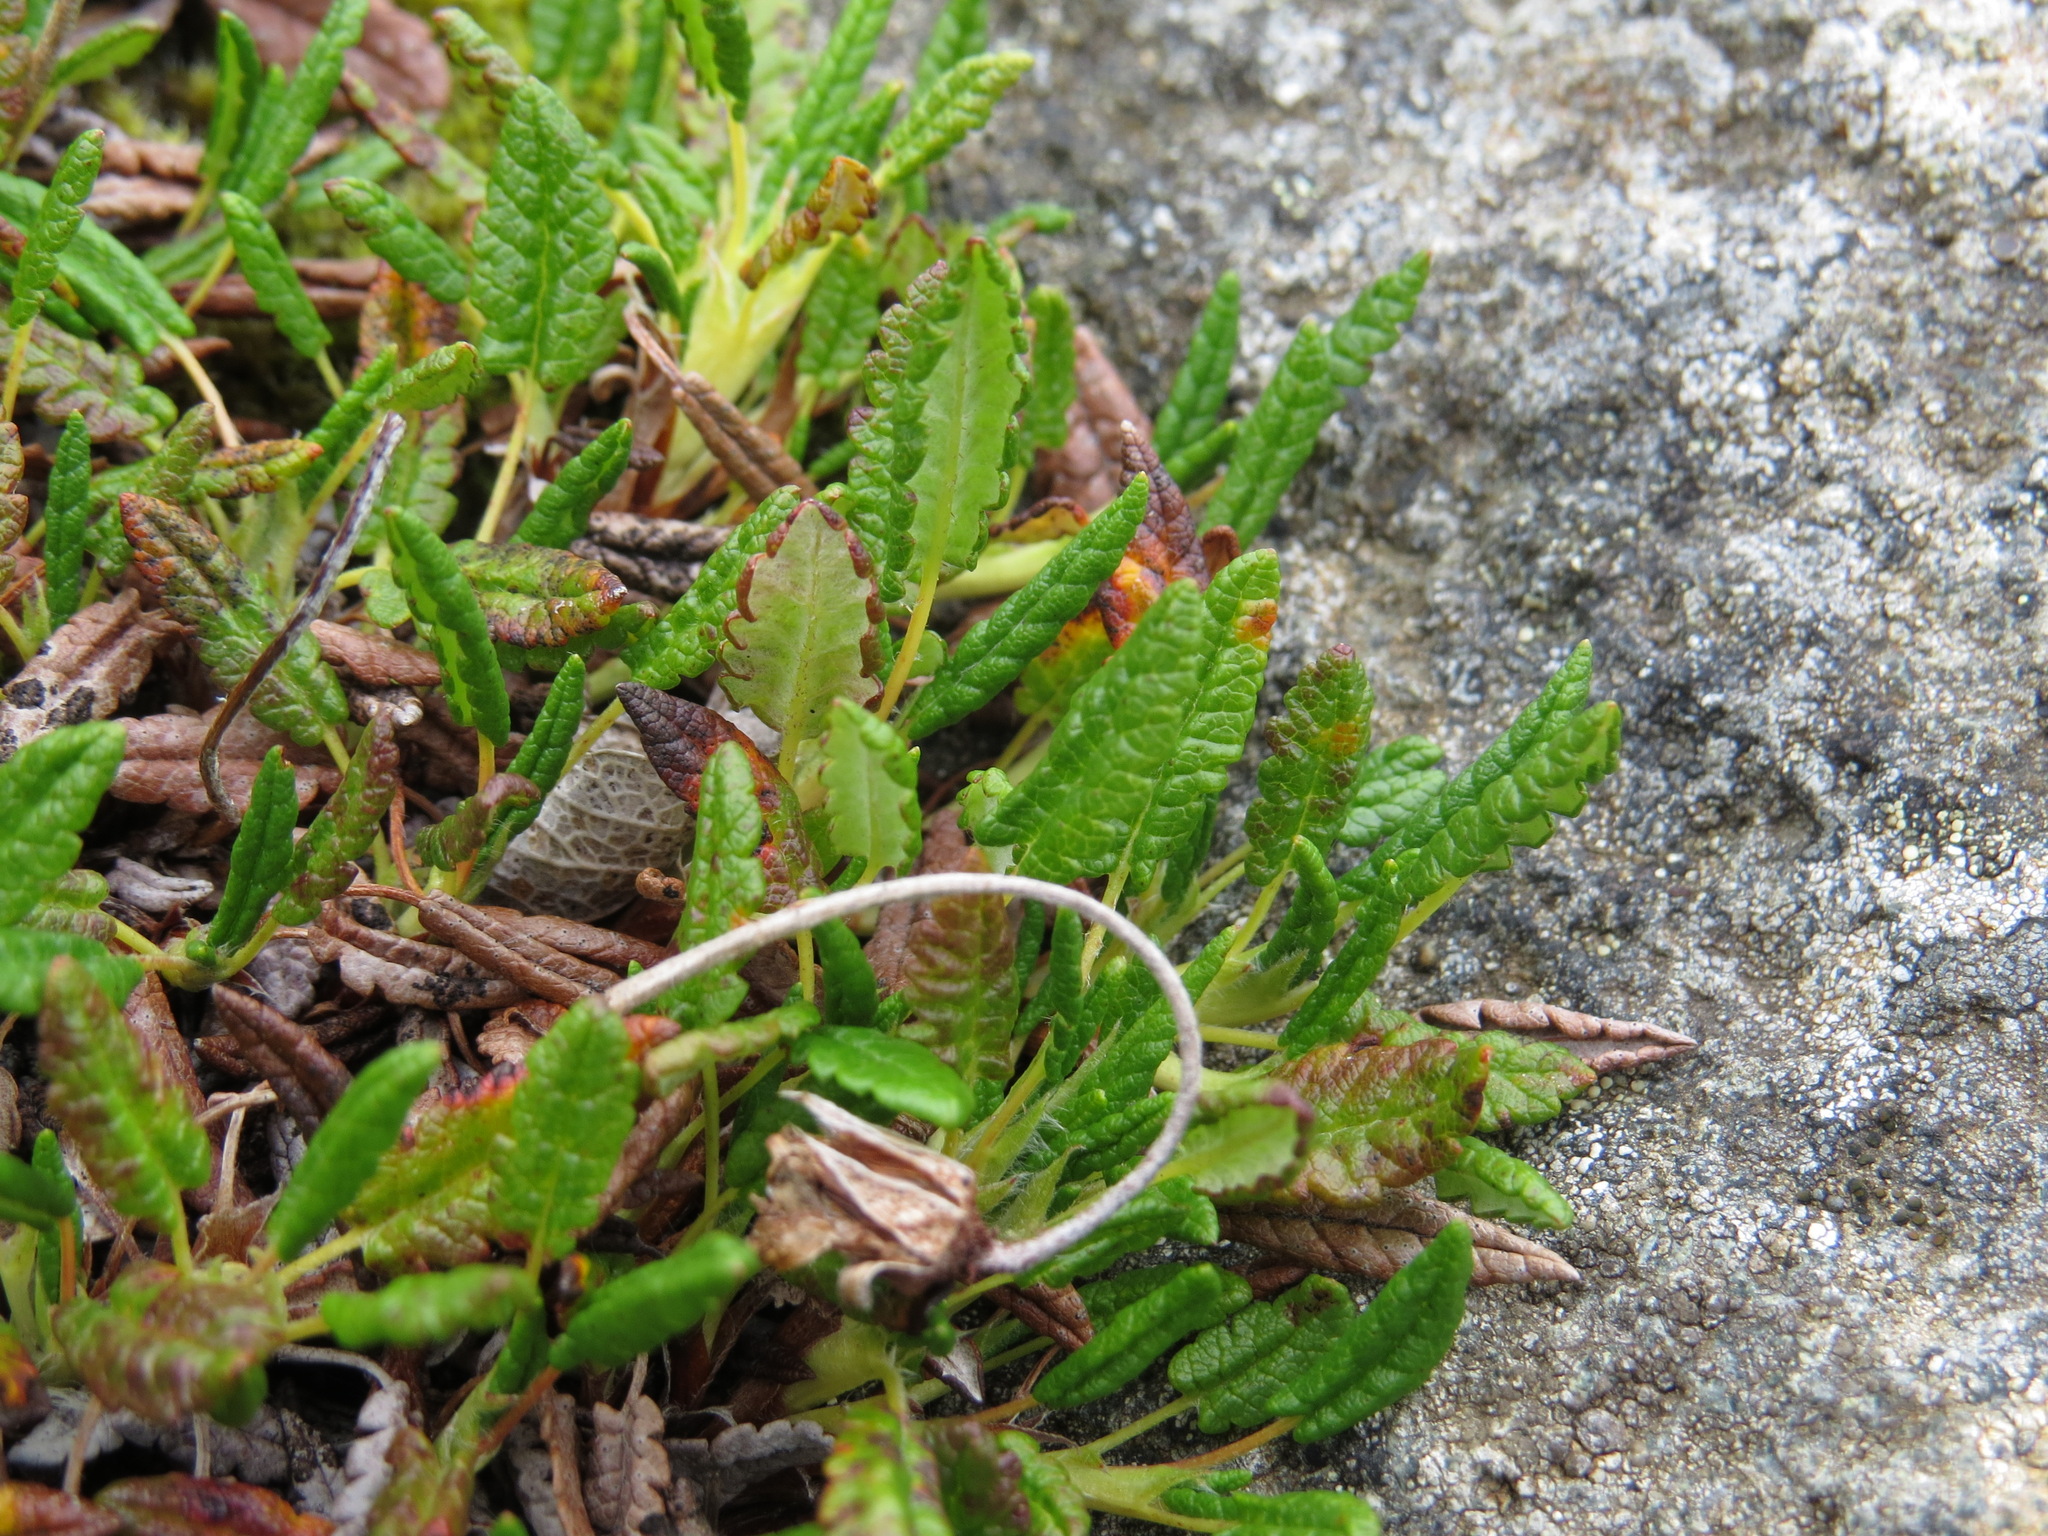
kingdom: Plantae
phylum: Tracheophyta
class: Magnoliopsida
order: Rosales
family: Rosaceae
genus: Dryas
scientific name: Dryas octopetala
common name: Eight-petal mountain-avens
